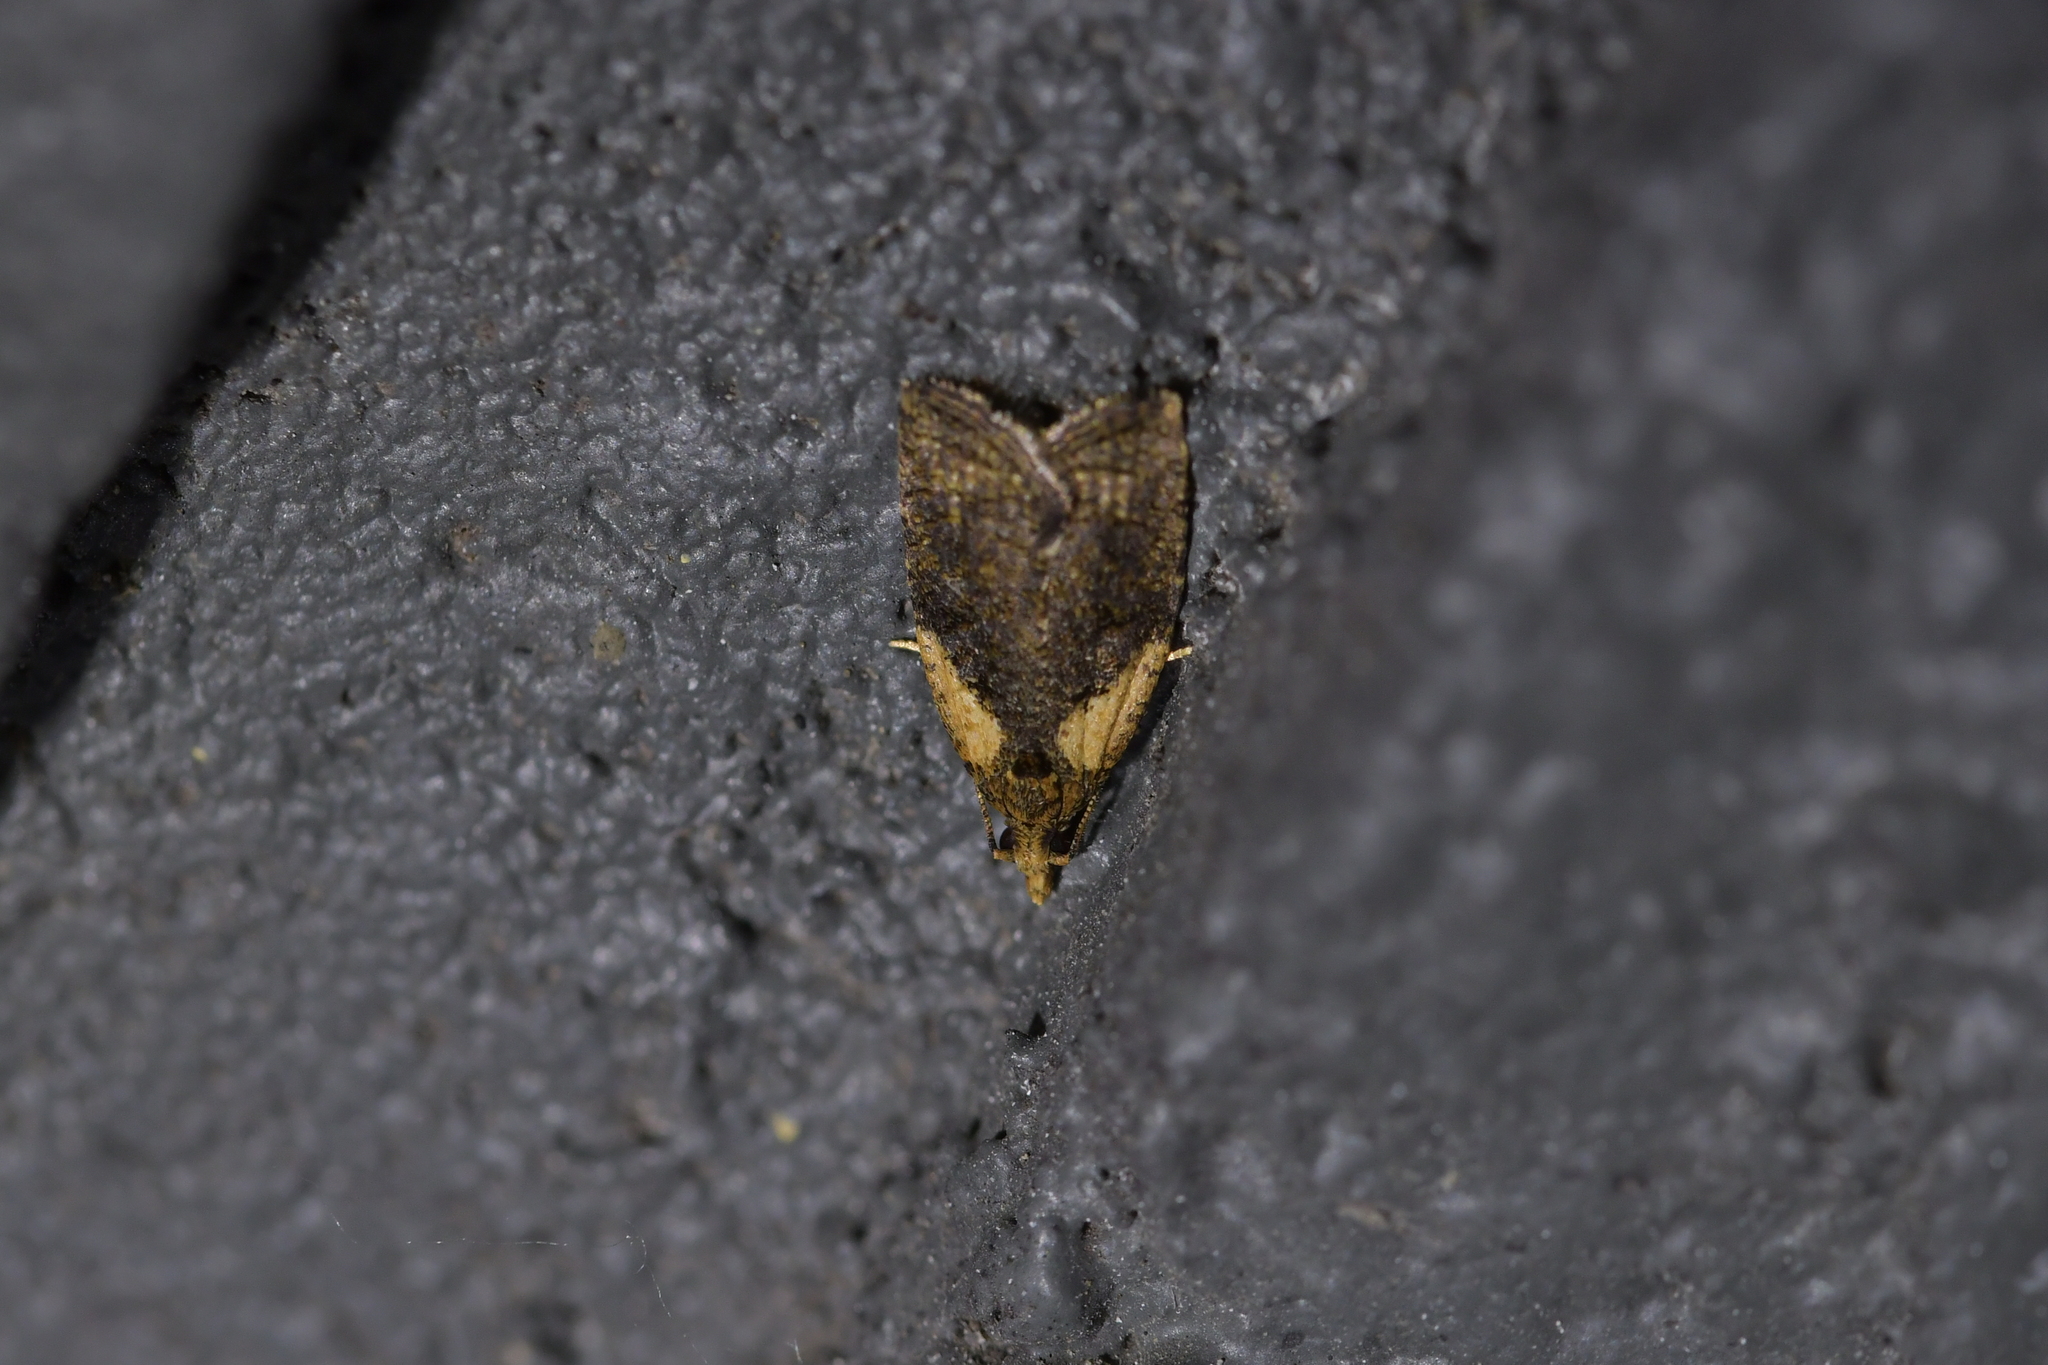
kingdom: Animalia
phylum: Arthropoda
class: Insecta
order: Lepidoptera
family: Tortricidae
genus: Capua
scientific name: Capua intractana
